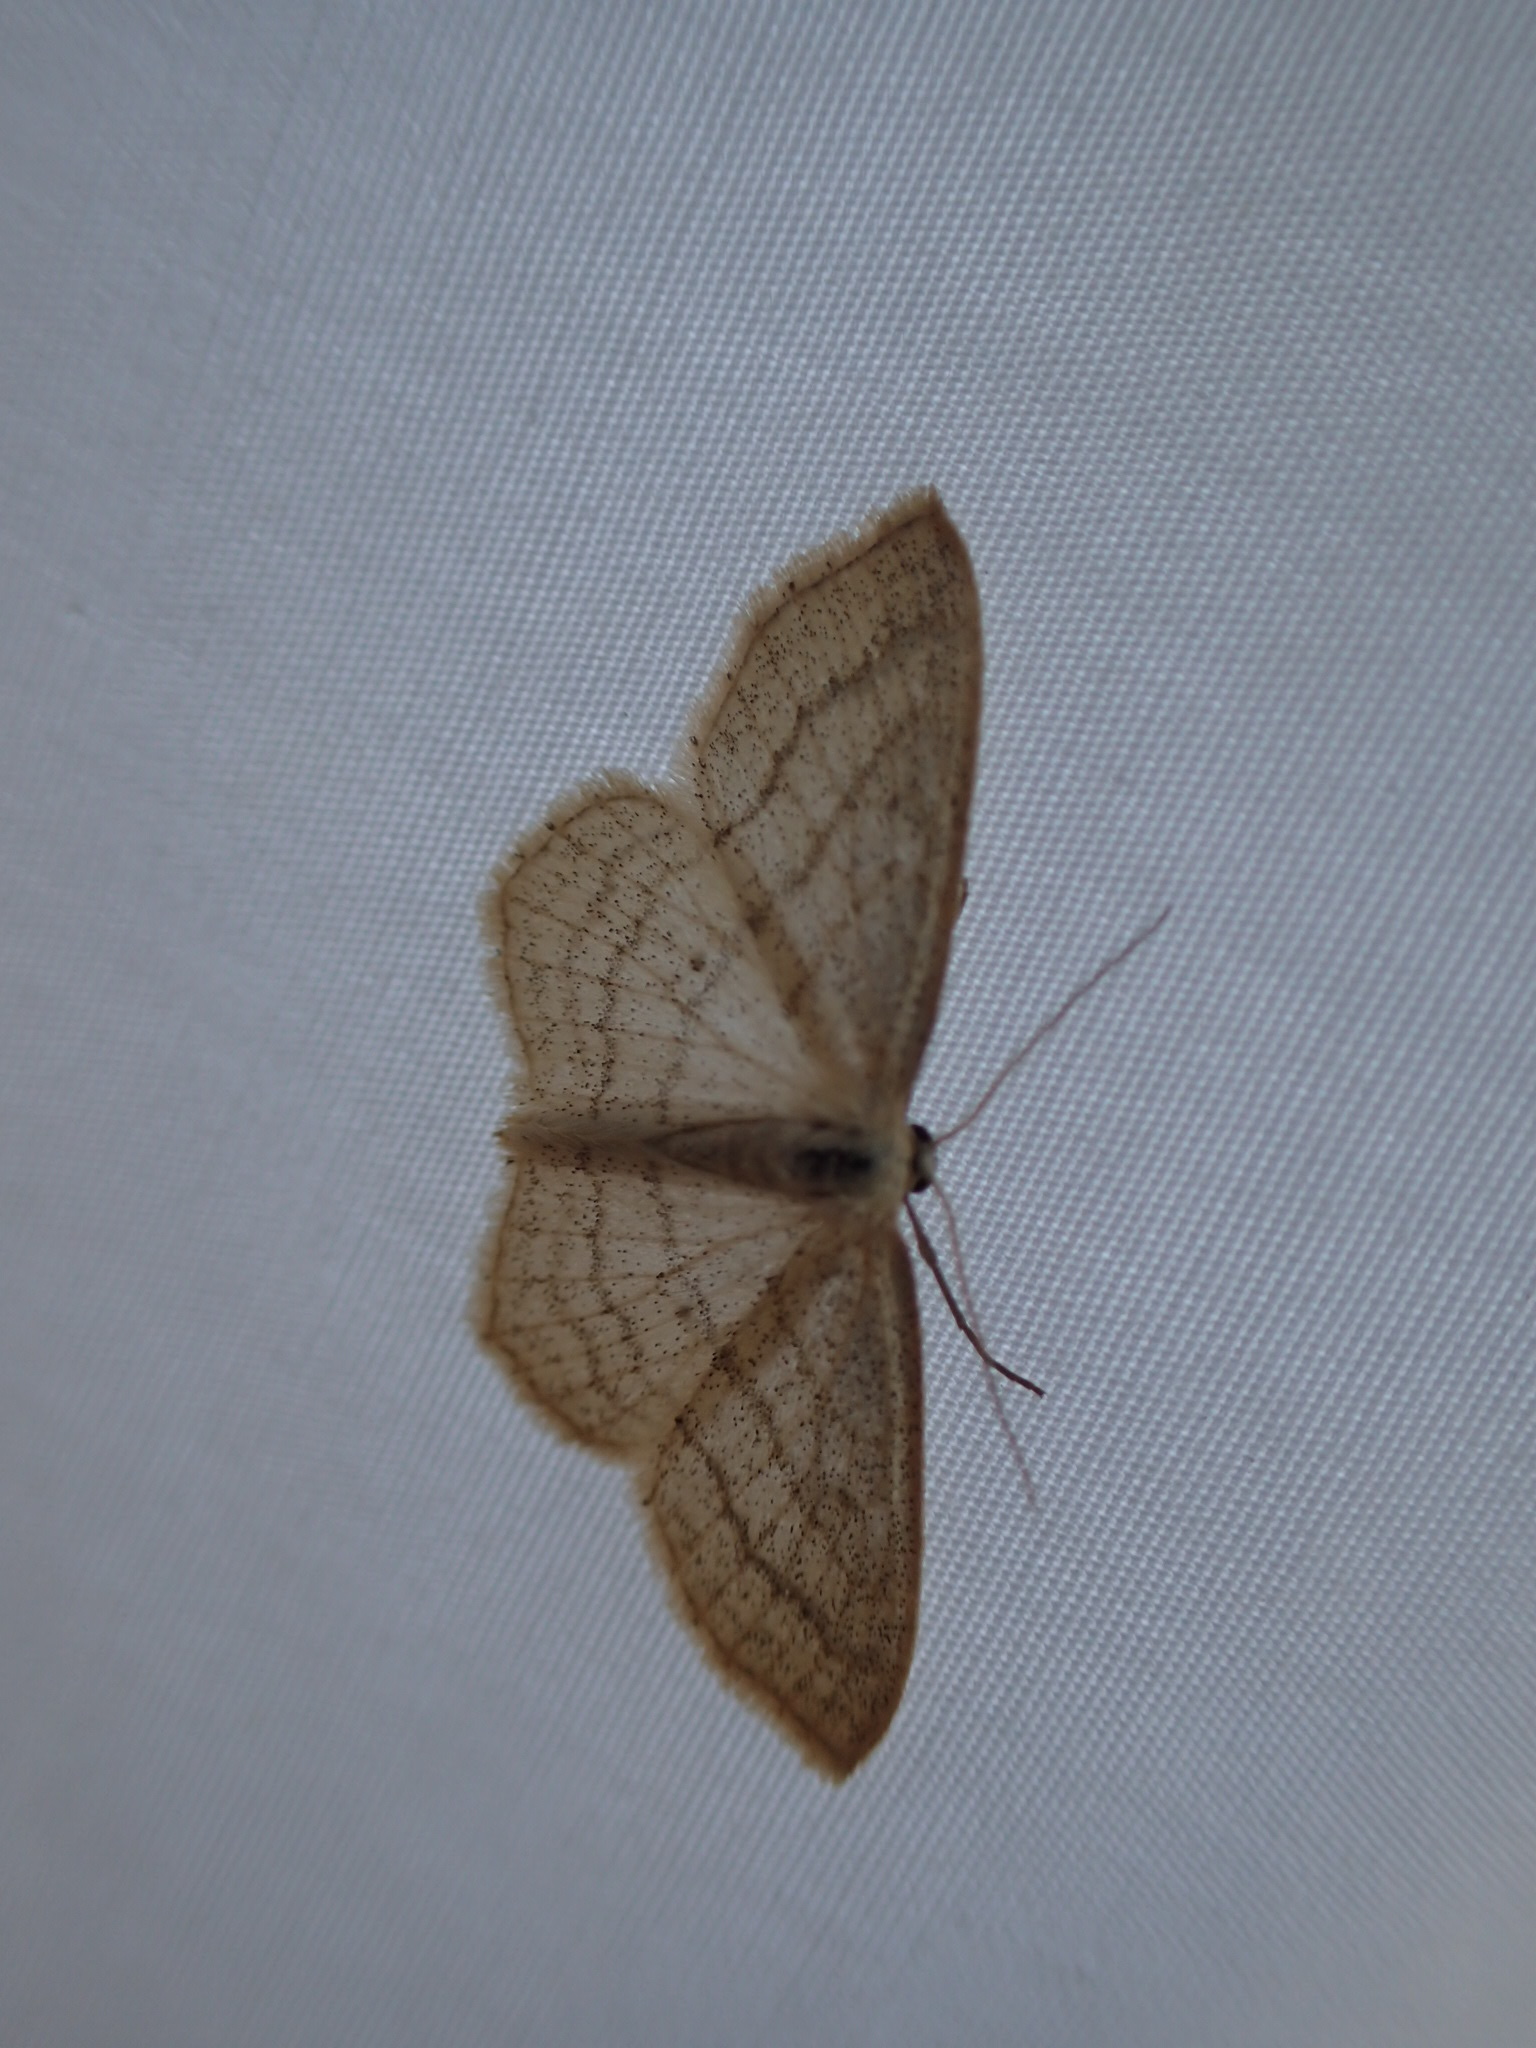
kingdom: Animalia
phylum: Arthropoda
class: Insecta
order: Lepidoptera
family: Geometridae
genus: Scopula
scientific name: Scopula ancellata
